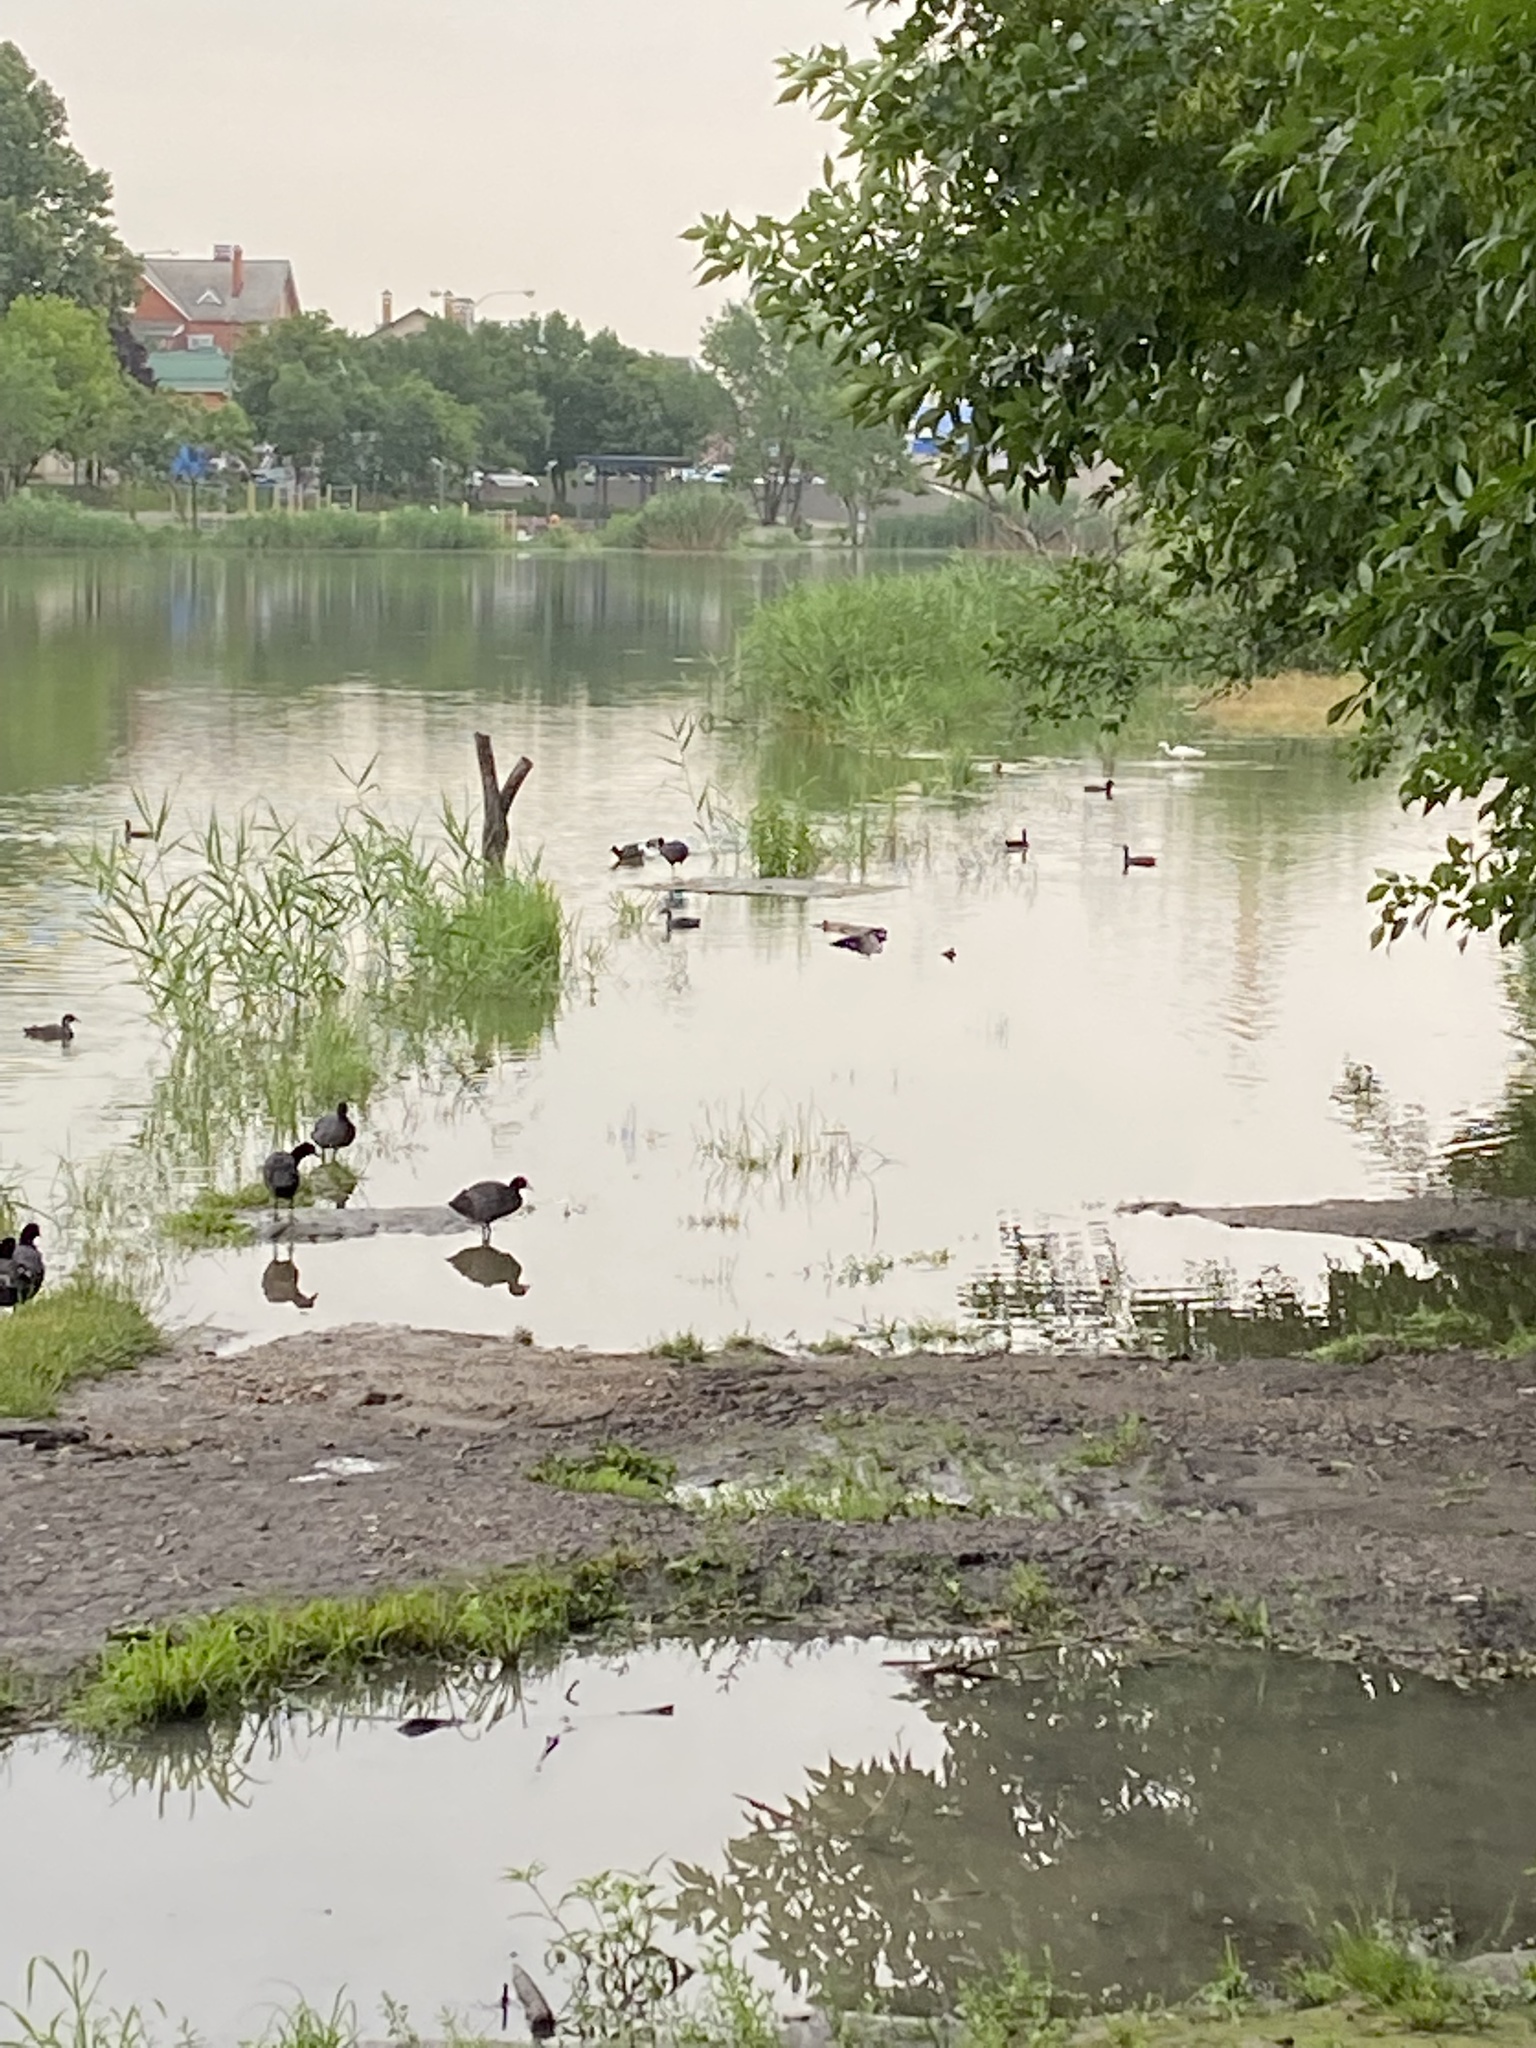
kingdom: Animalia
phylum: Chordata
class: Aves
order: Gruiformes
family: Rallidae
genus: Fulica
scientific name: Fulica atra
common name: Eurasian coot
